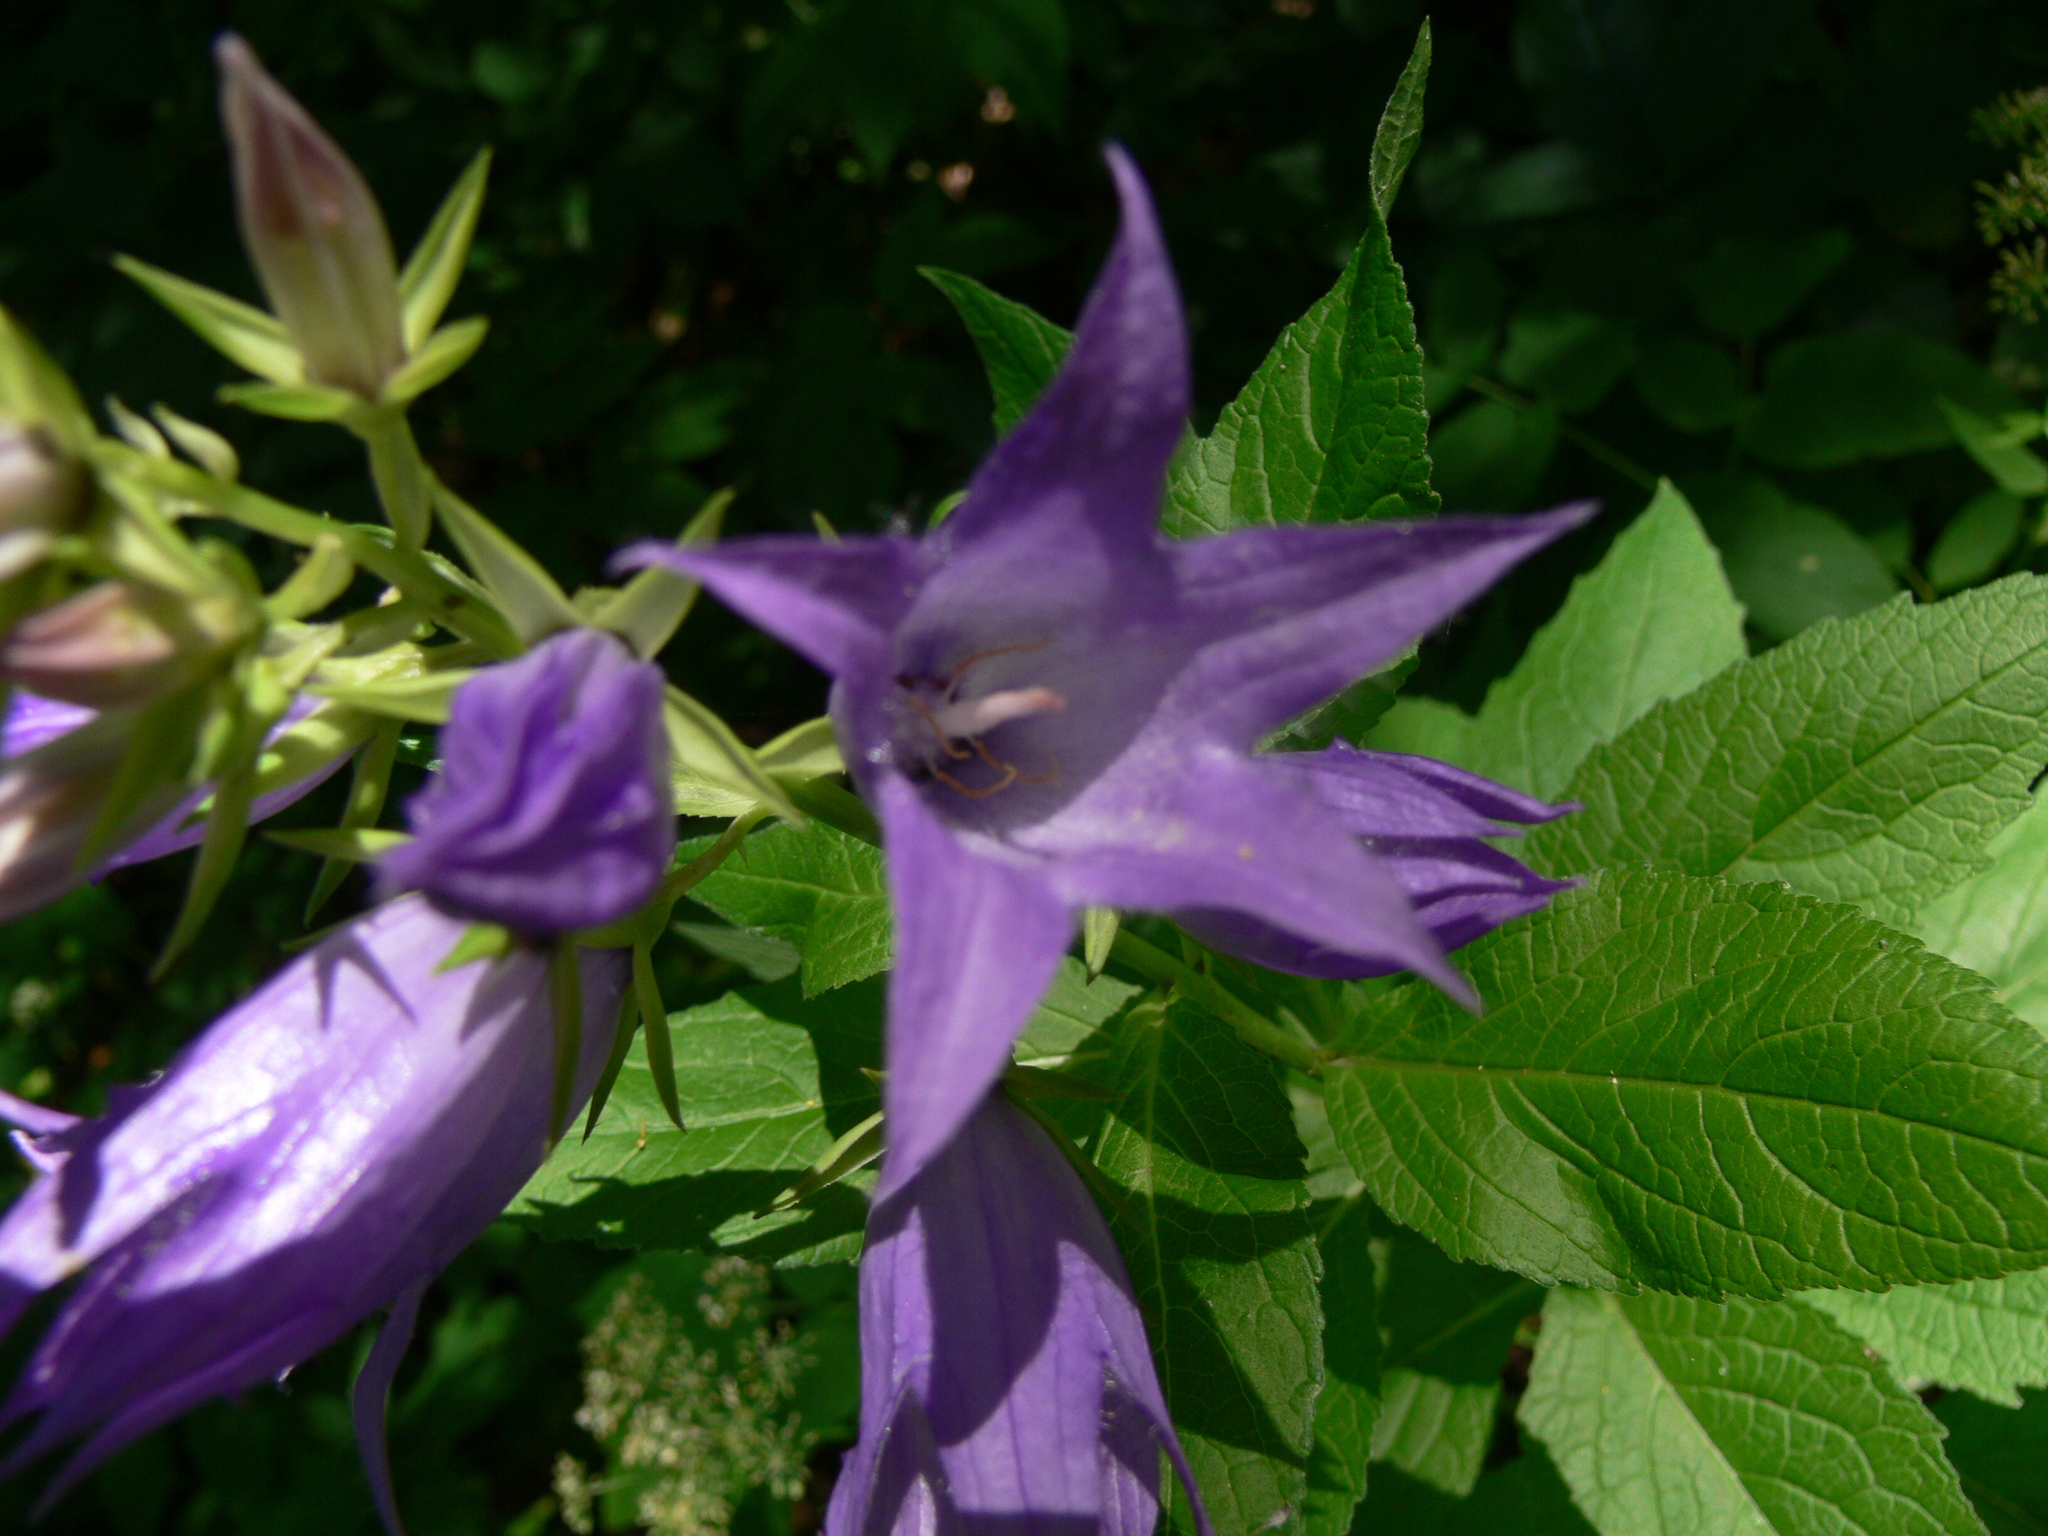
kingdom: Plantae
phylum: Tracheophyta
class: Magnoliopsida
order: Asterales
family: Campanulaceae
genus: Campanula
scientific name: Campanula latifolia
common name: Giant bellflower
